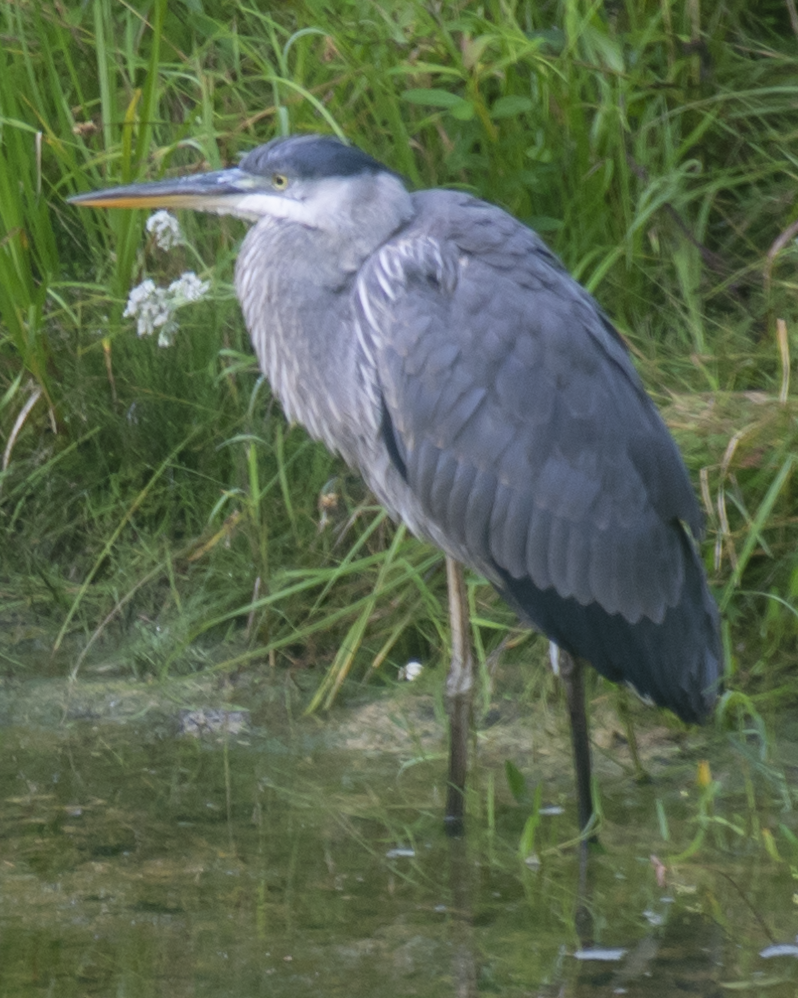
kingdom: Animalia
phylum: Chordata
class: Aves
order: Pelecaniformes
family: Ardeidae
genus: Ardea
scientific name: Ardea herodias
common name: Great blue heron
